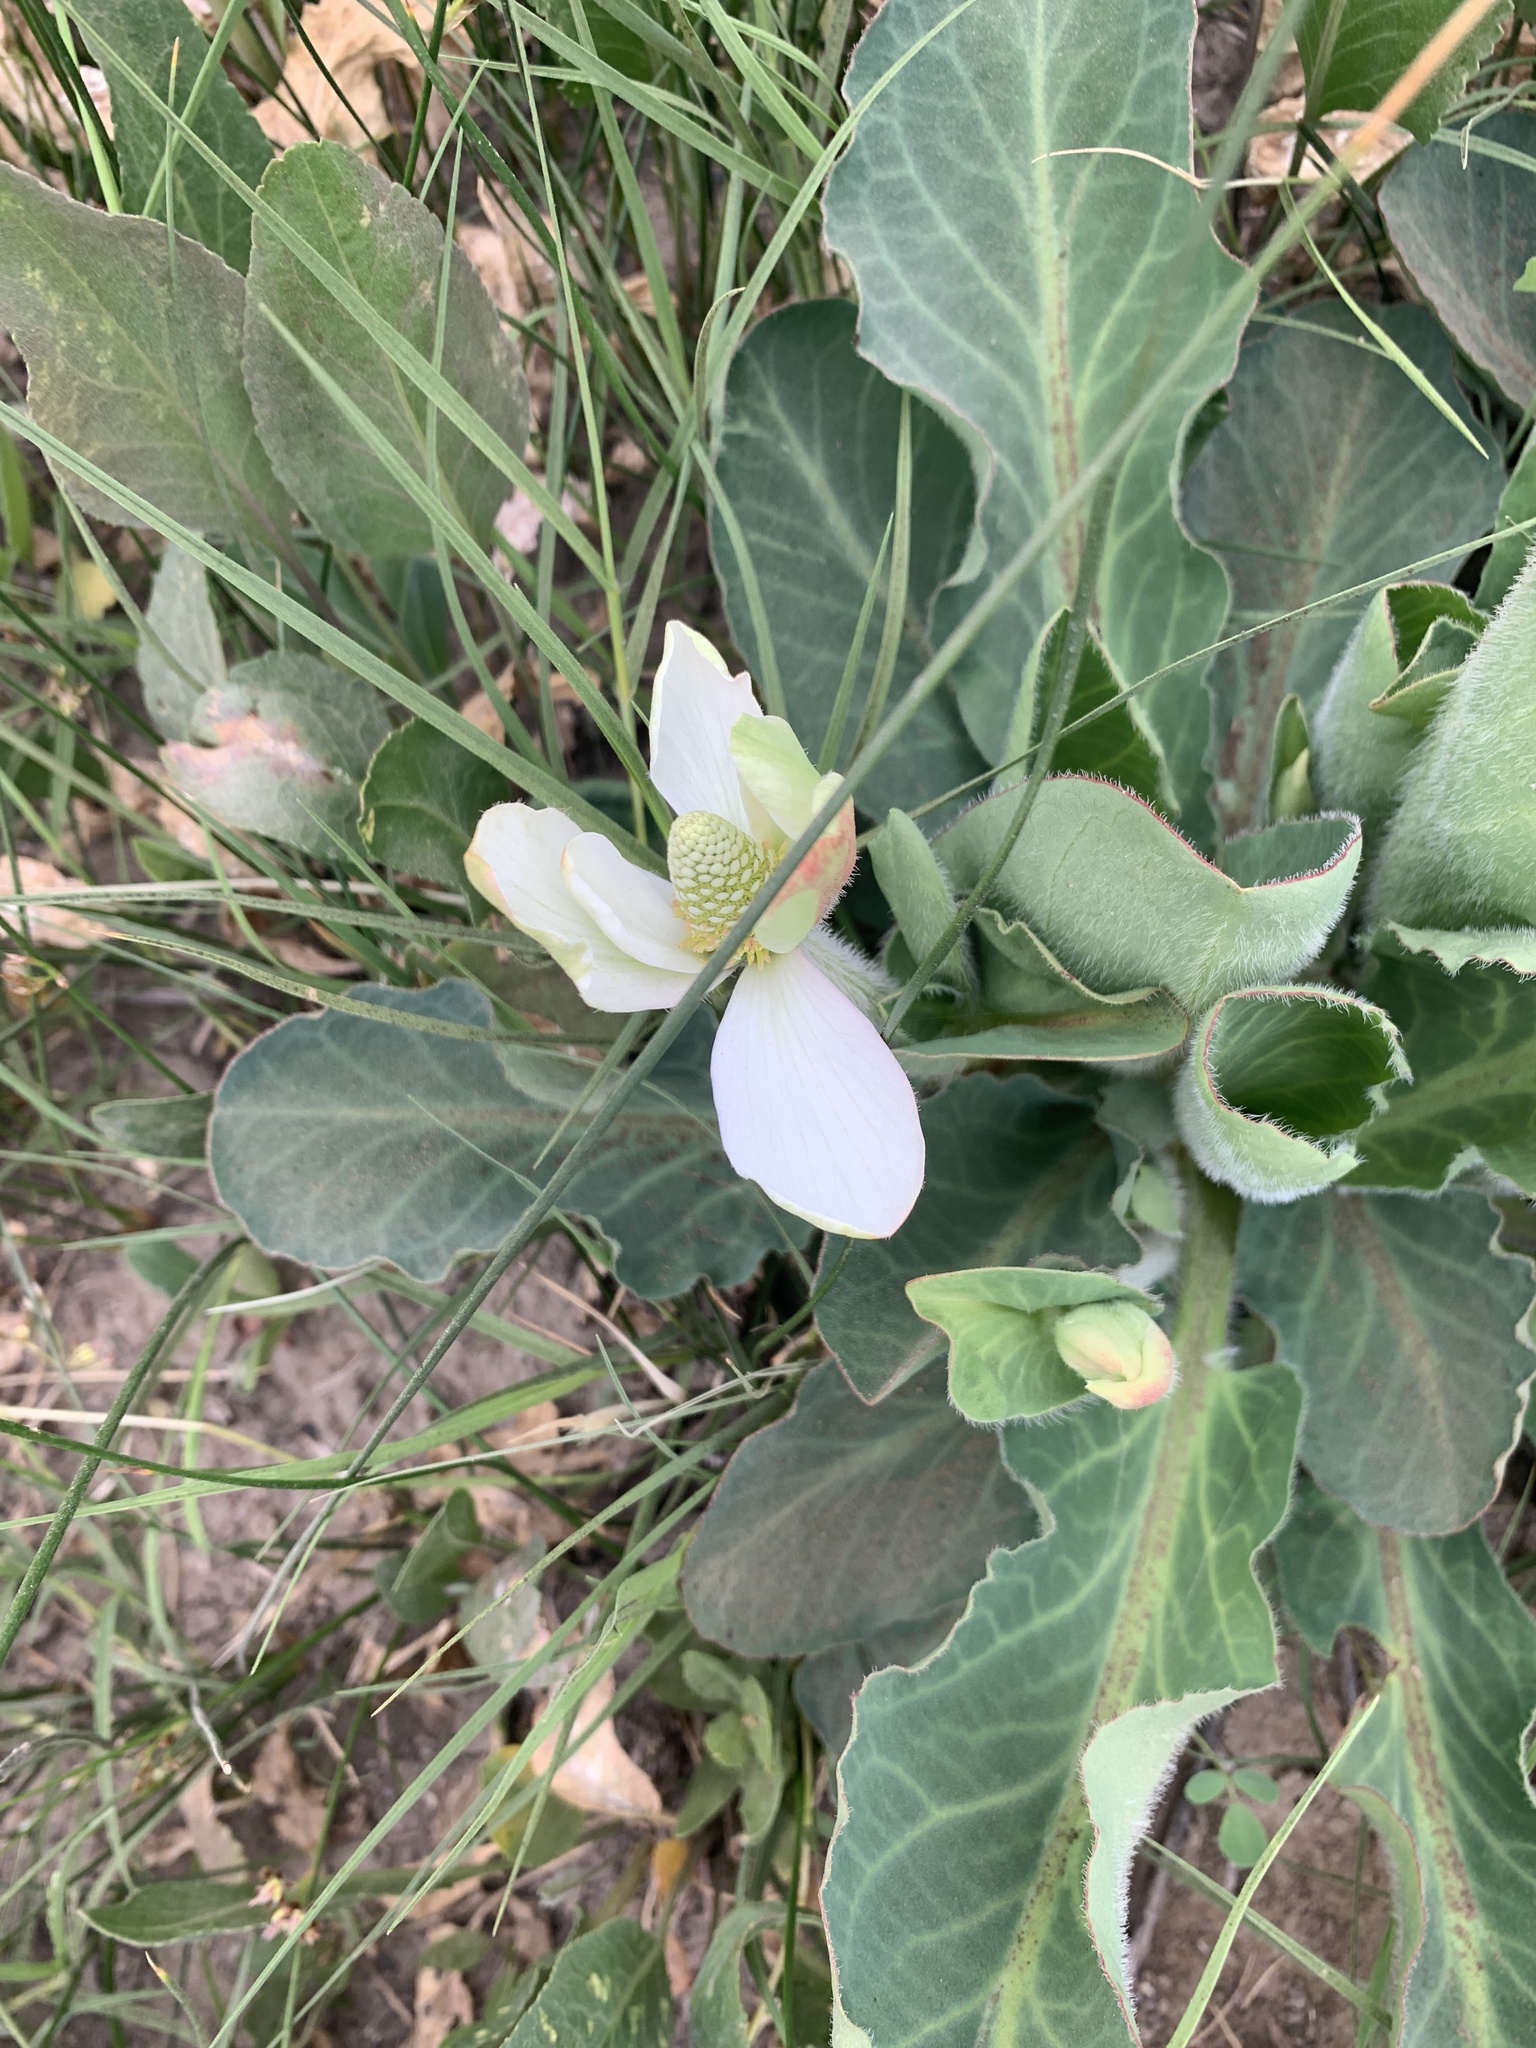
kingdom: Plantae
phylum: Tracheophyta
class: Magnoliopsida
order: Piperales
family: Saururaceae
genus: Anemopsis
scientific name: Anemopsis californica
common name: Apache-beads
